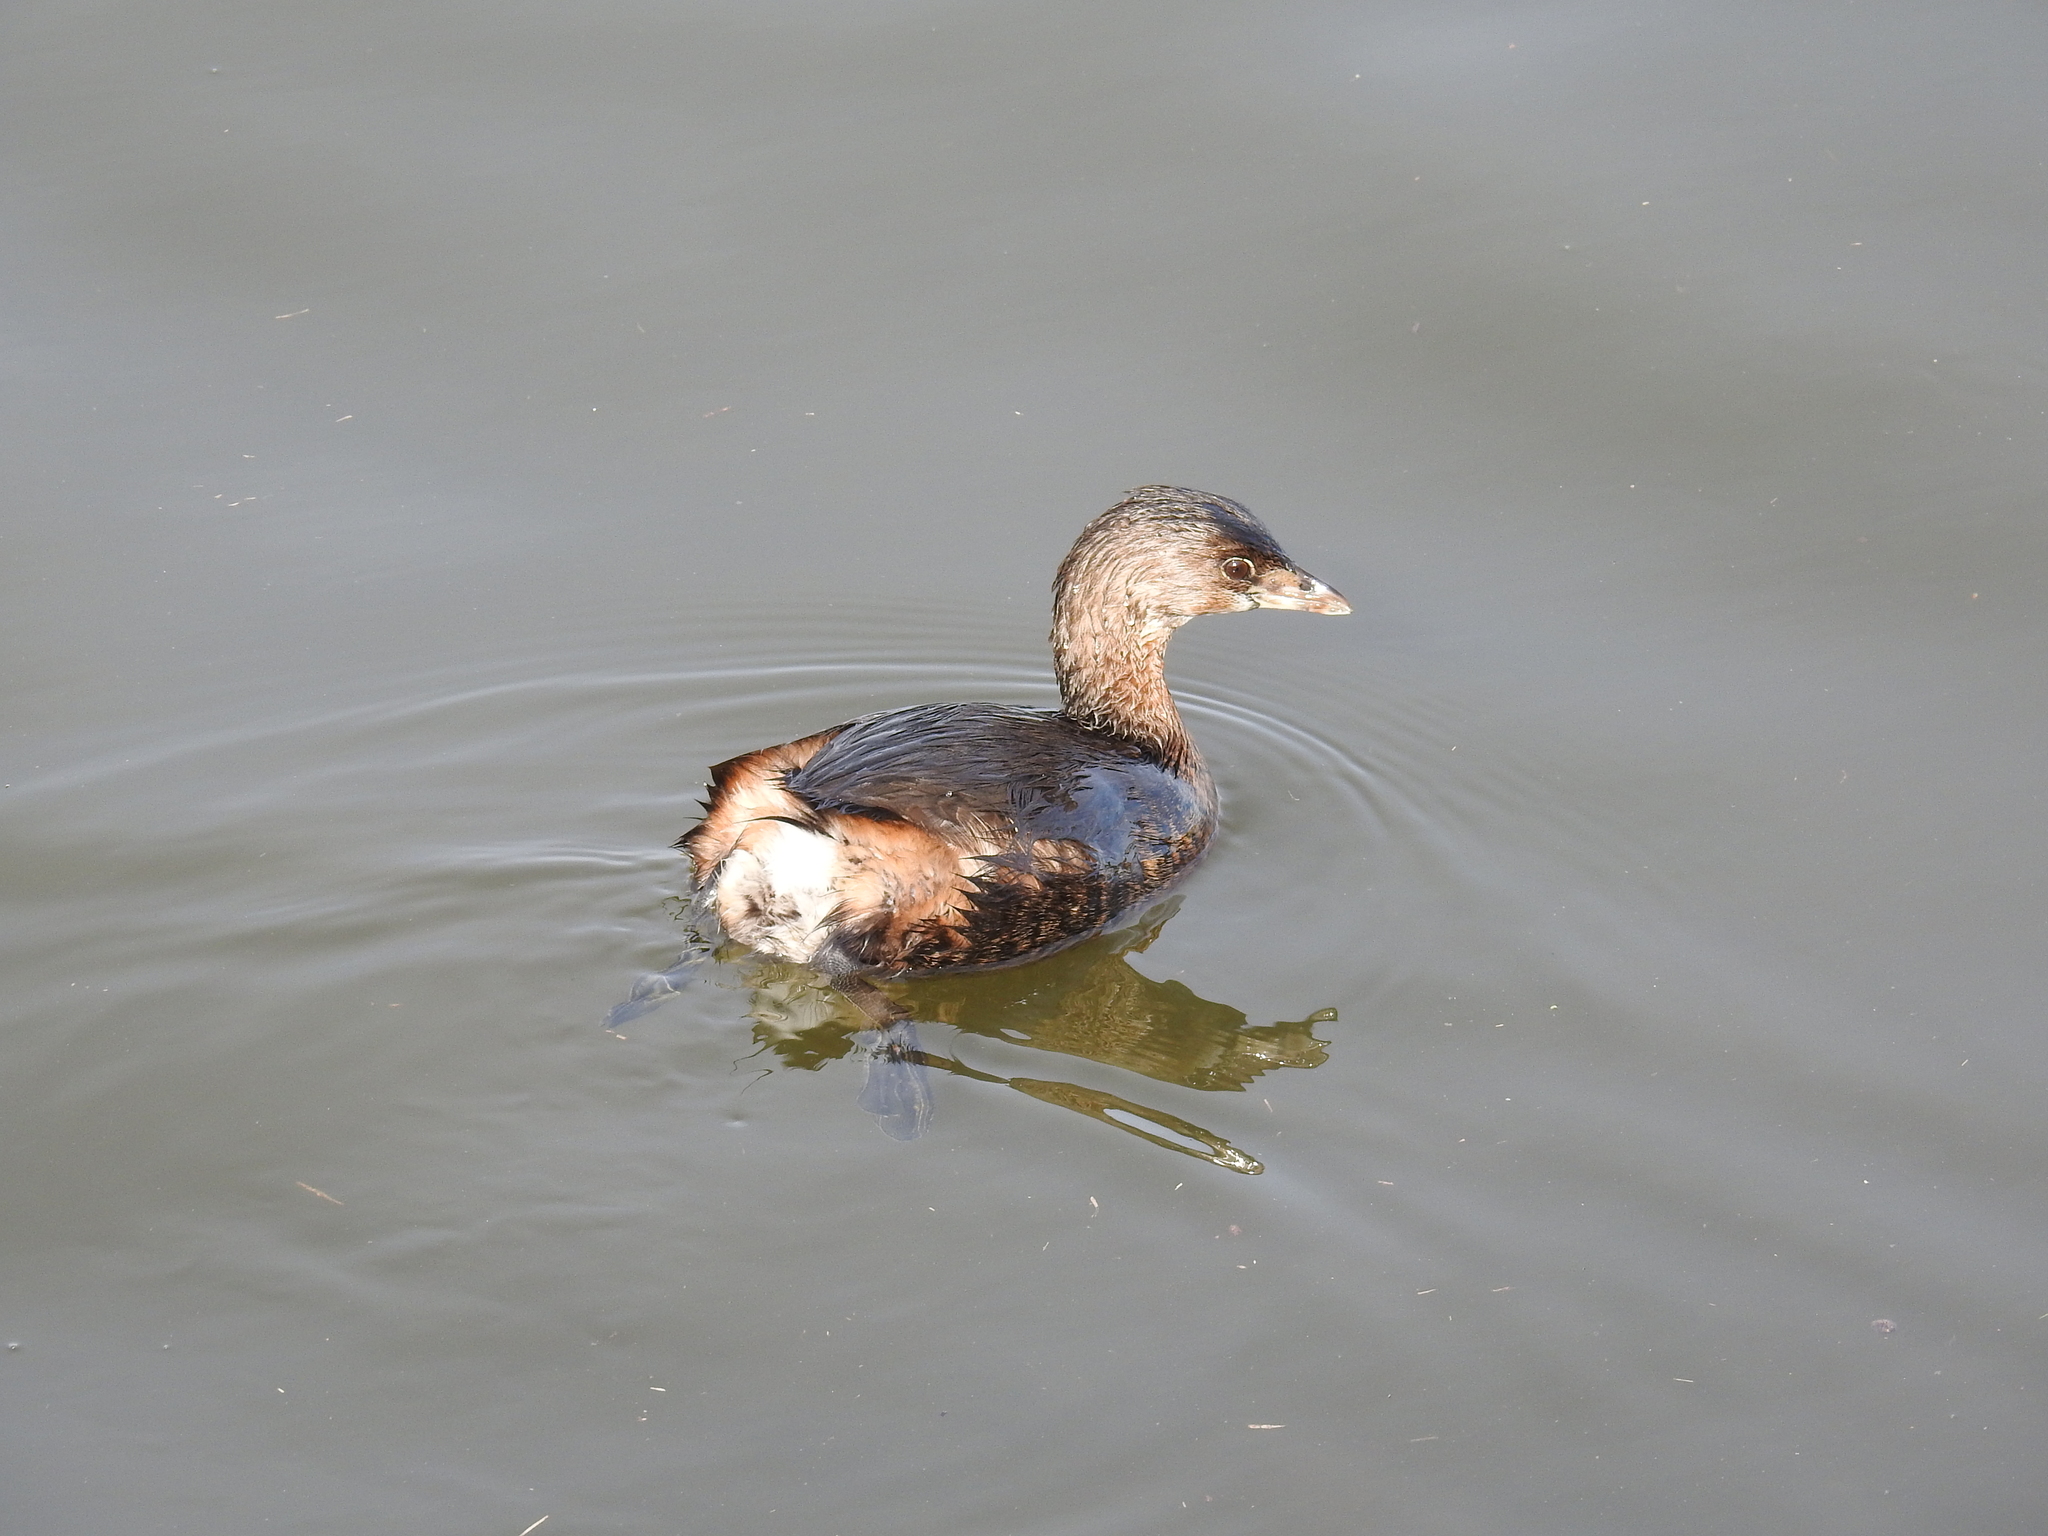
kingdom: Animalia
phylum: Chordata
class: Aves
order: Podicipediformes
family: Podicipedidae
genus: Podilymbus
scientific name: Podilymbus podiceps
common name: Pied-billed grebe
